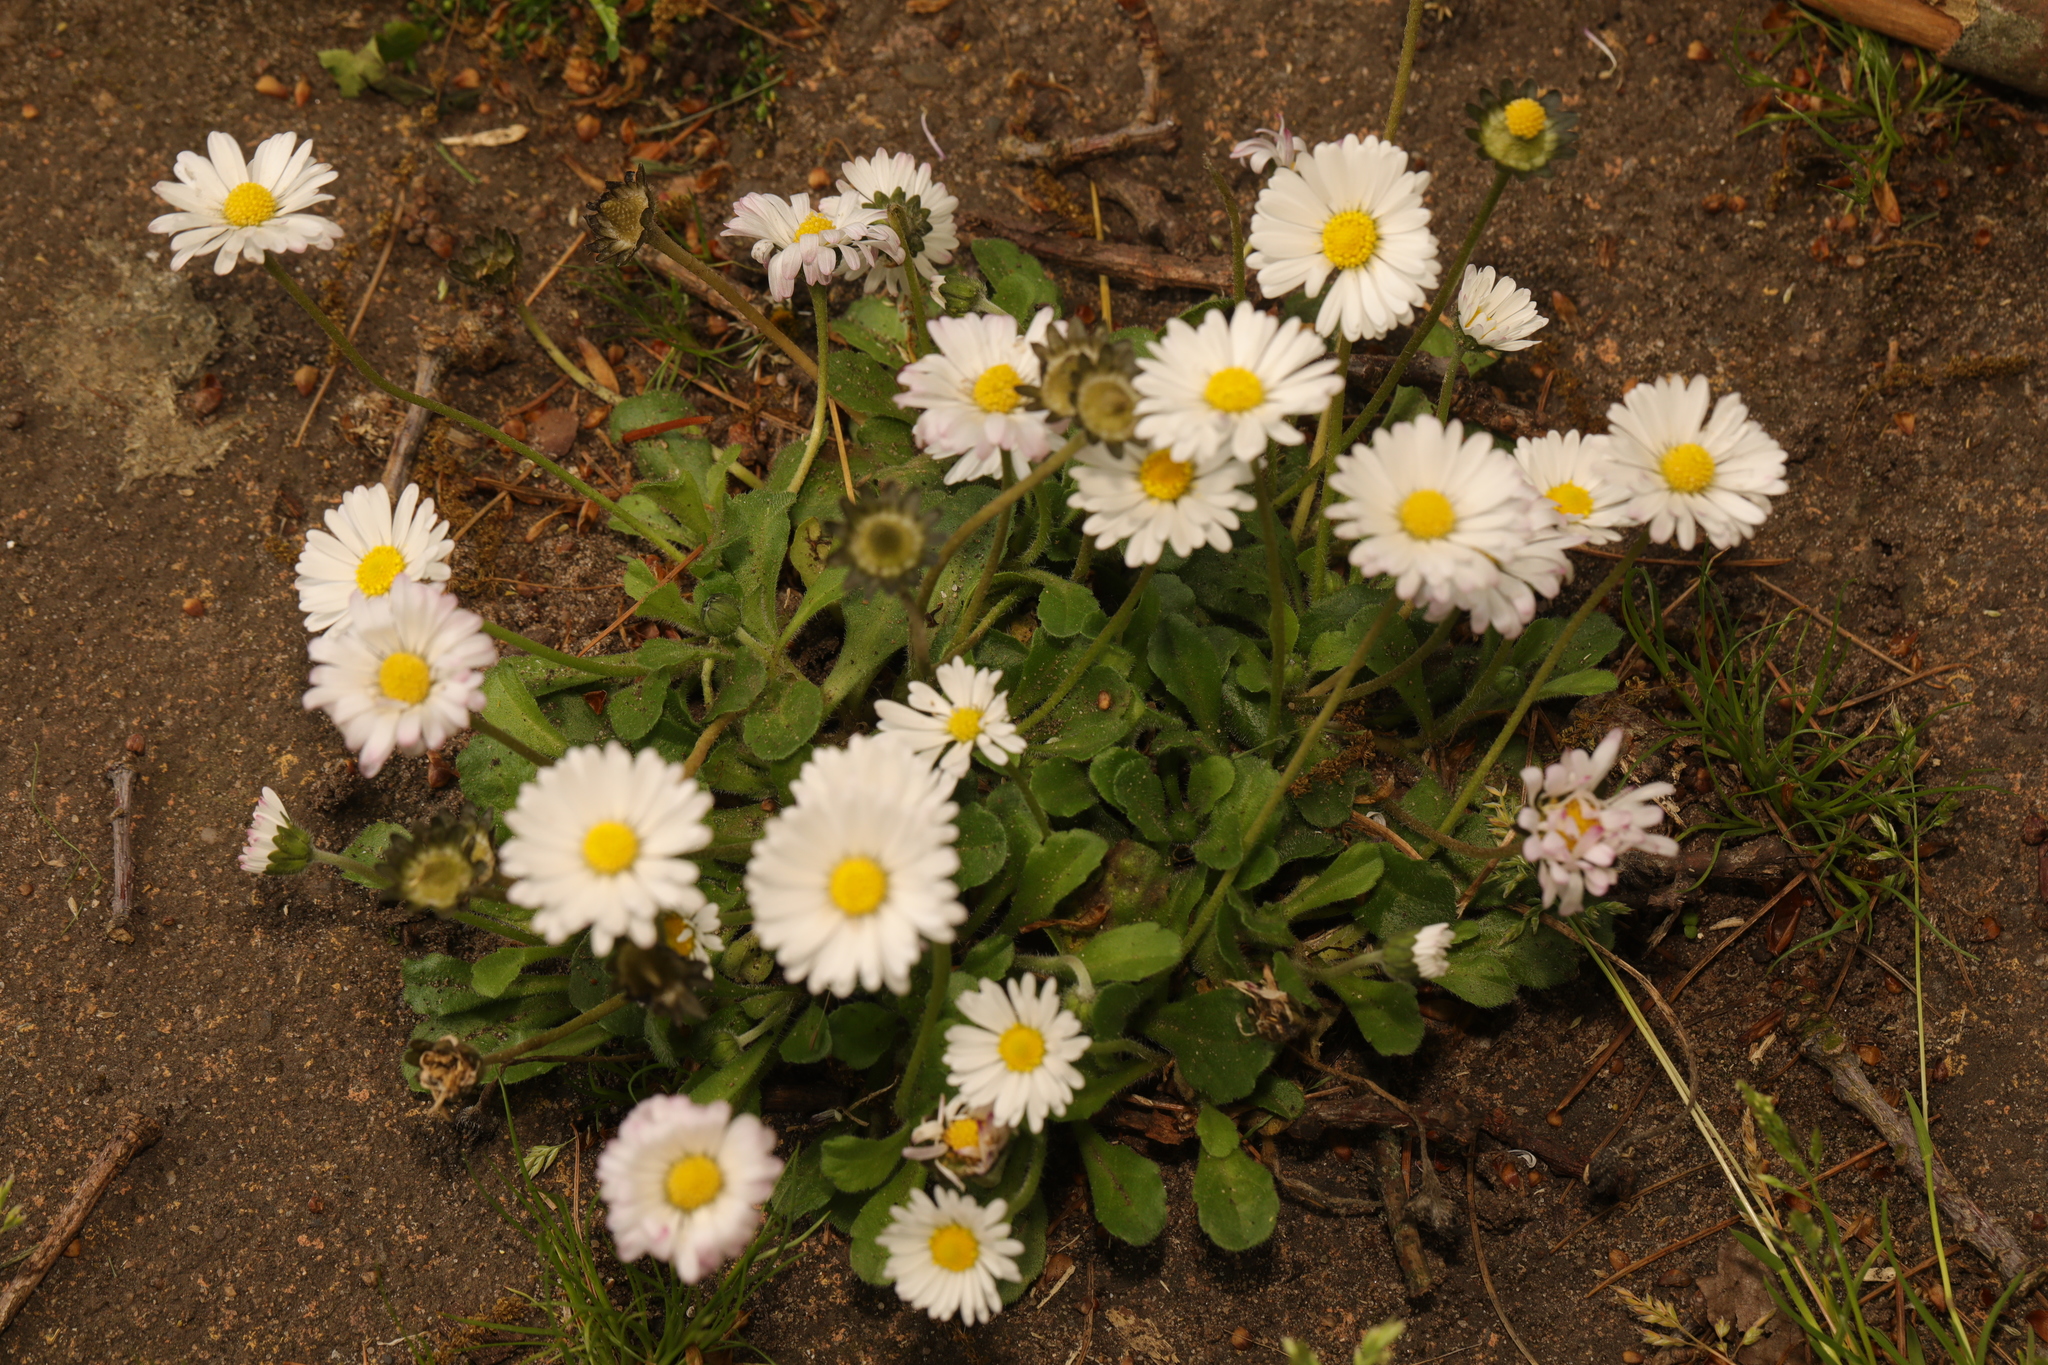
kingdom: Plantae
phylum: Tracheophyta
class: Magnoliopsida
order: Asterales
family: Asteraceae
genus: Bellis
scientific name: Bellis perennis
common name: Lawndaisy
